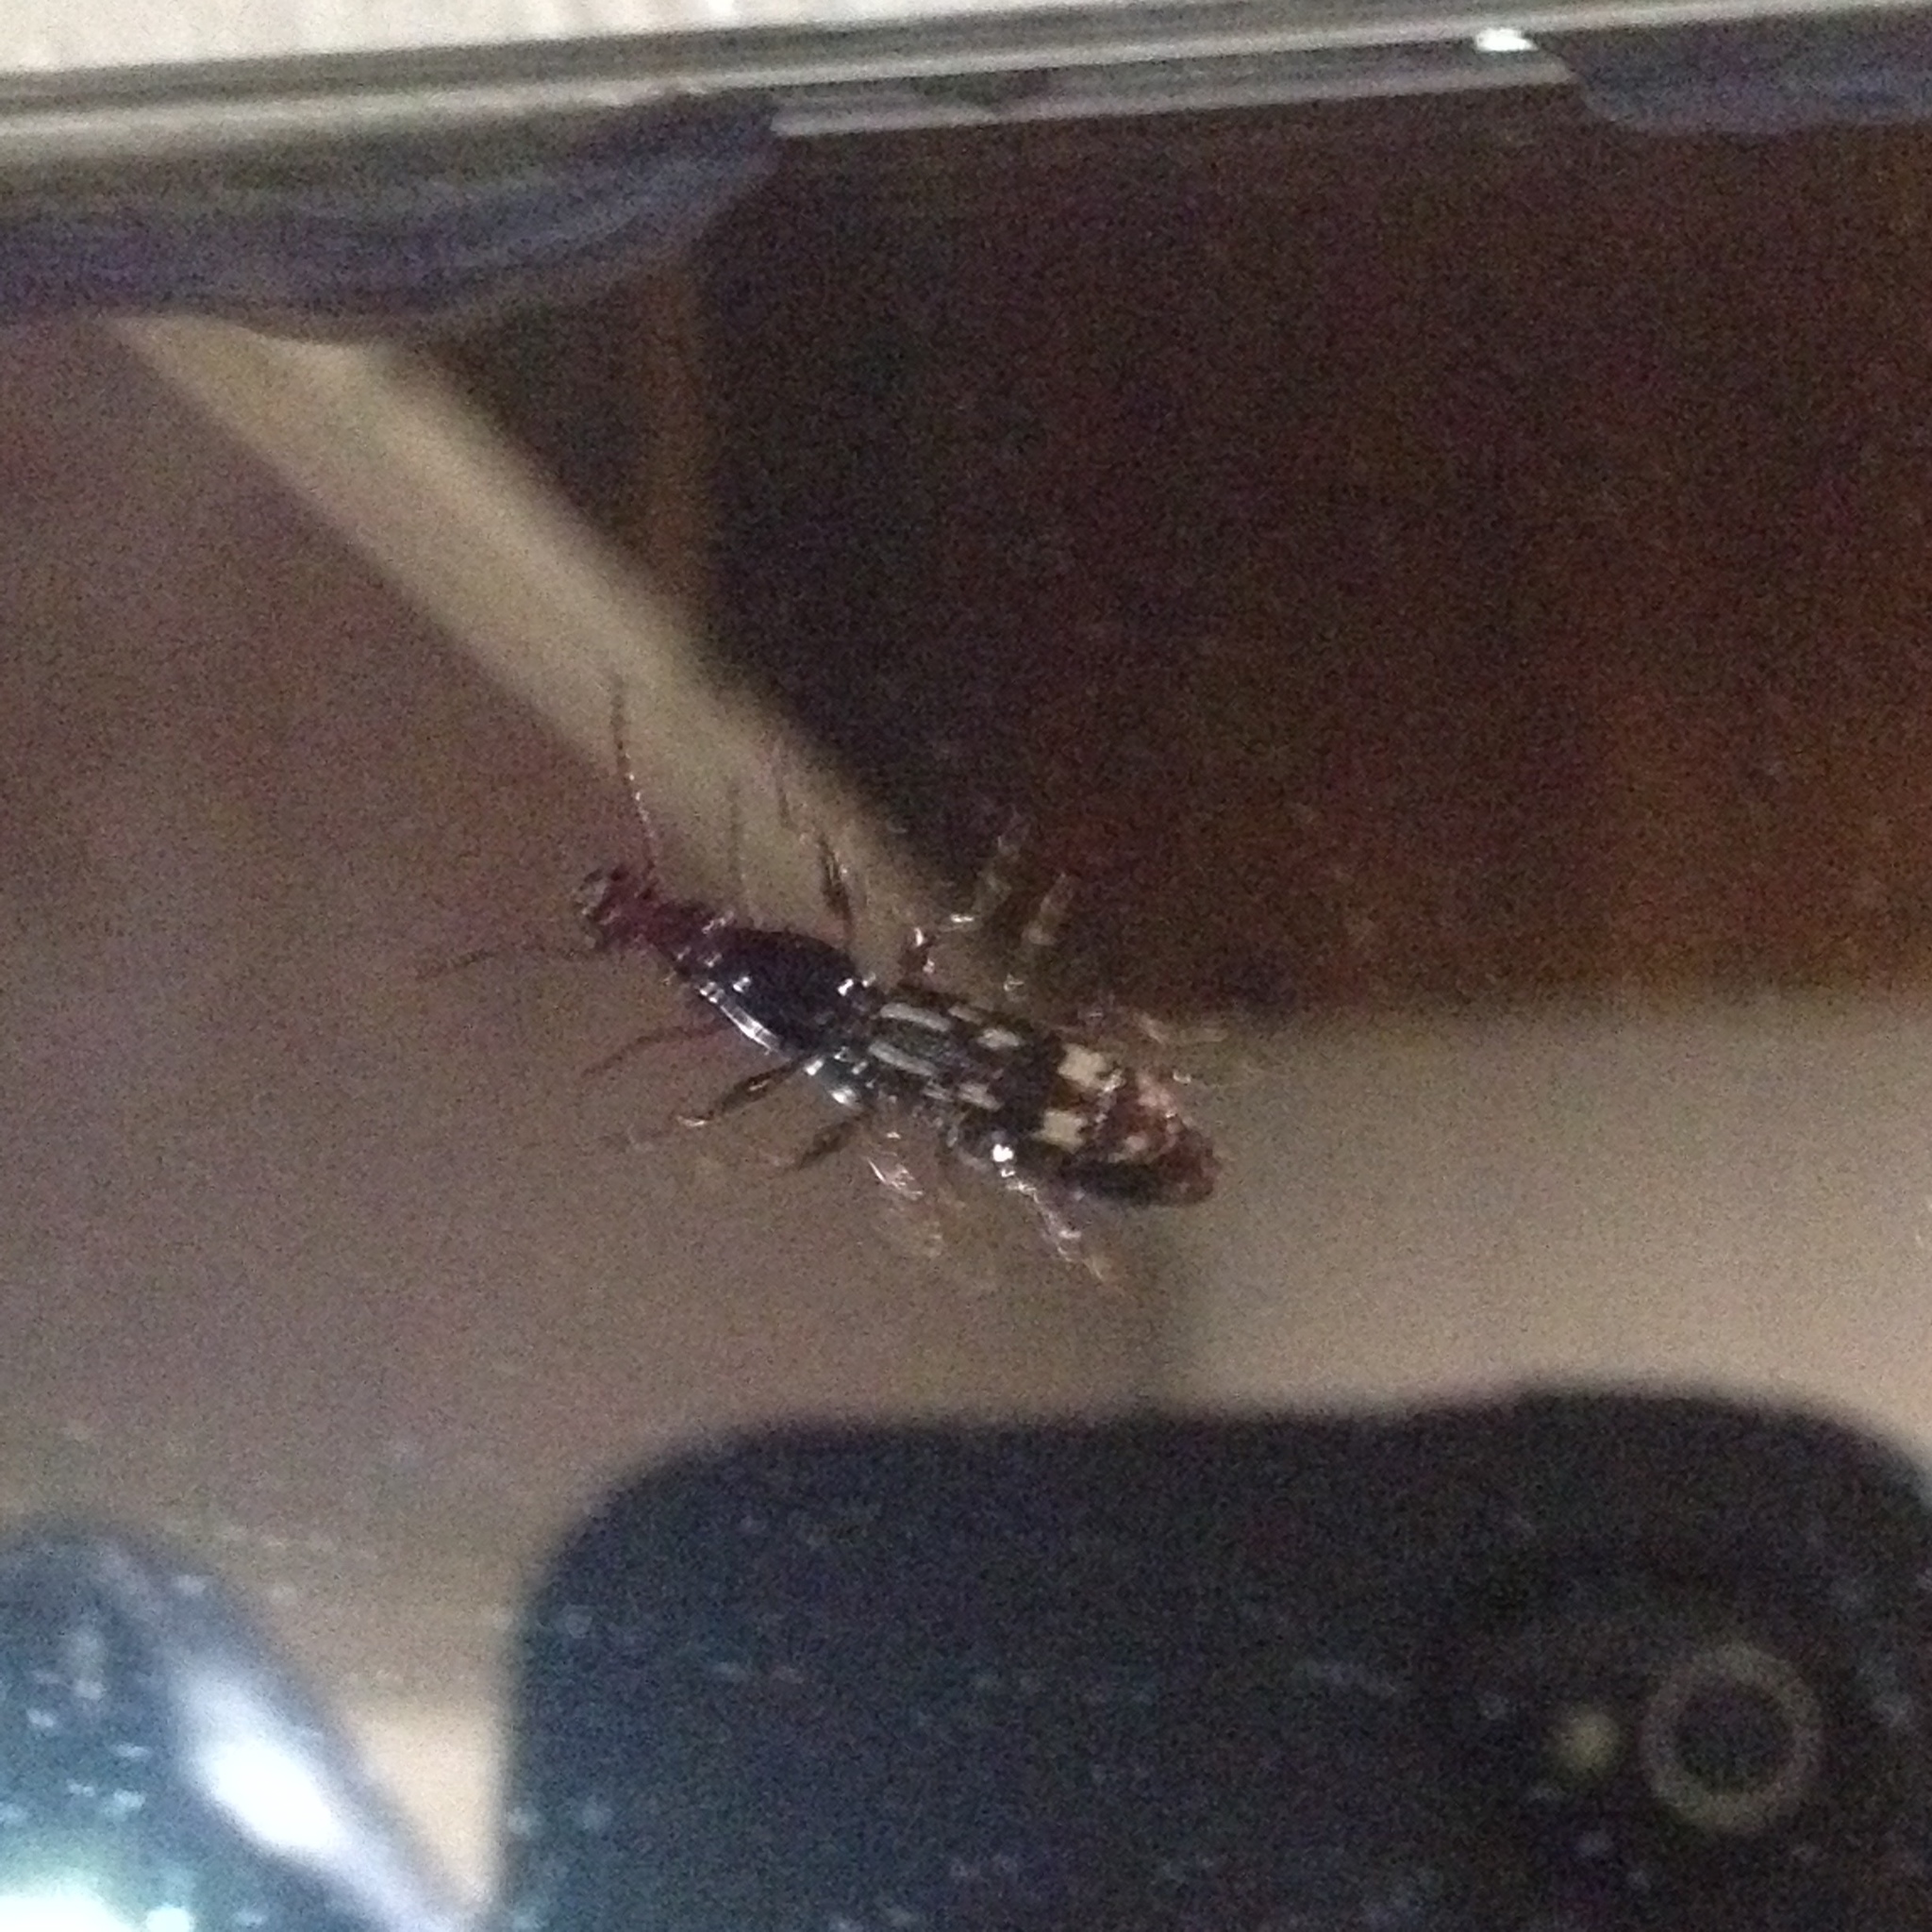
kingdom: Animalia
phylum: Arthropoda
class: Insecta
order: Coleoptera
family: Brentidae
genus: Arrenodes
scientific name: Arrenodes minutus
